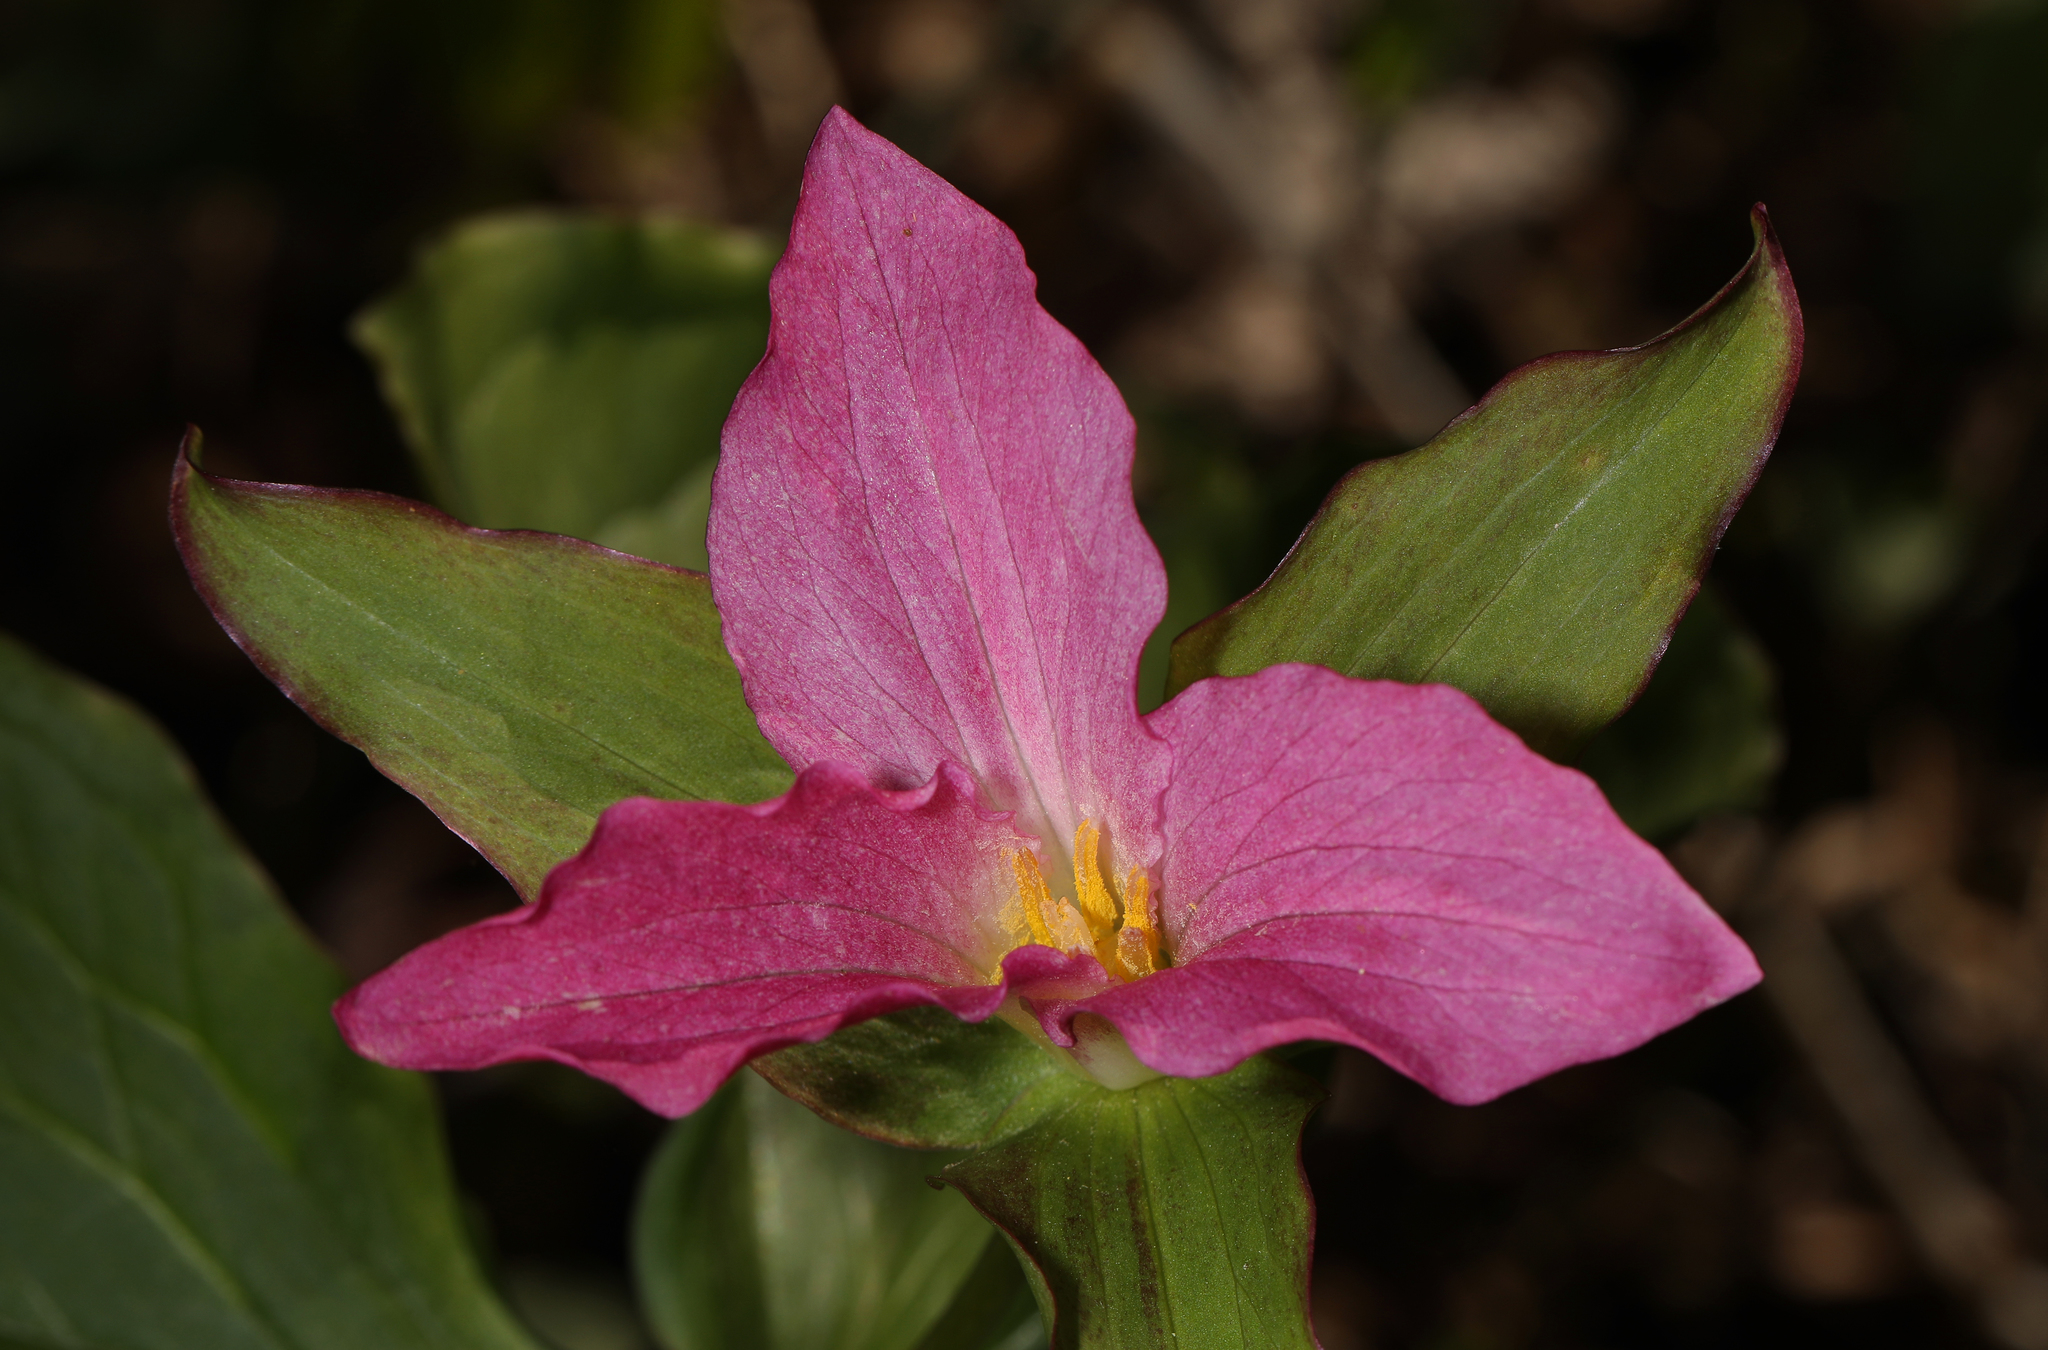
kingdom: Plantae
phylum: Tracheophyta
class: Liliopsida
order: Liliales
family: Melanthiaceae
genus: Trillium
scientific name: Trillium grandiflorum
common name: Great white trillium
